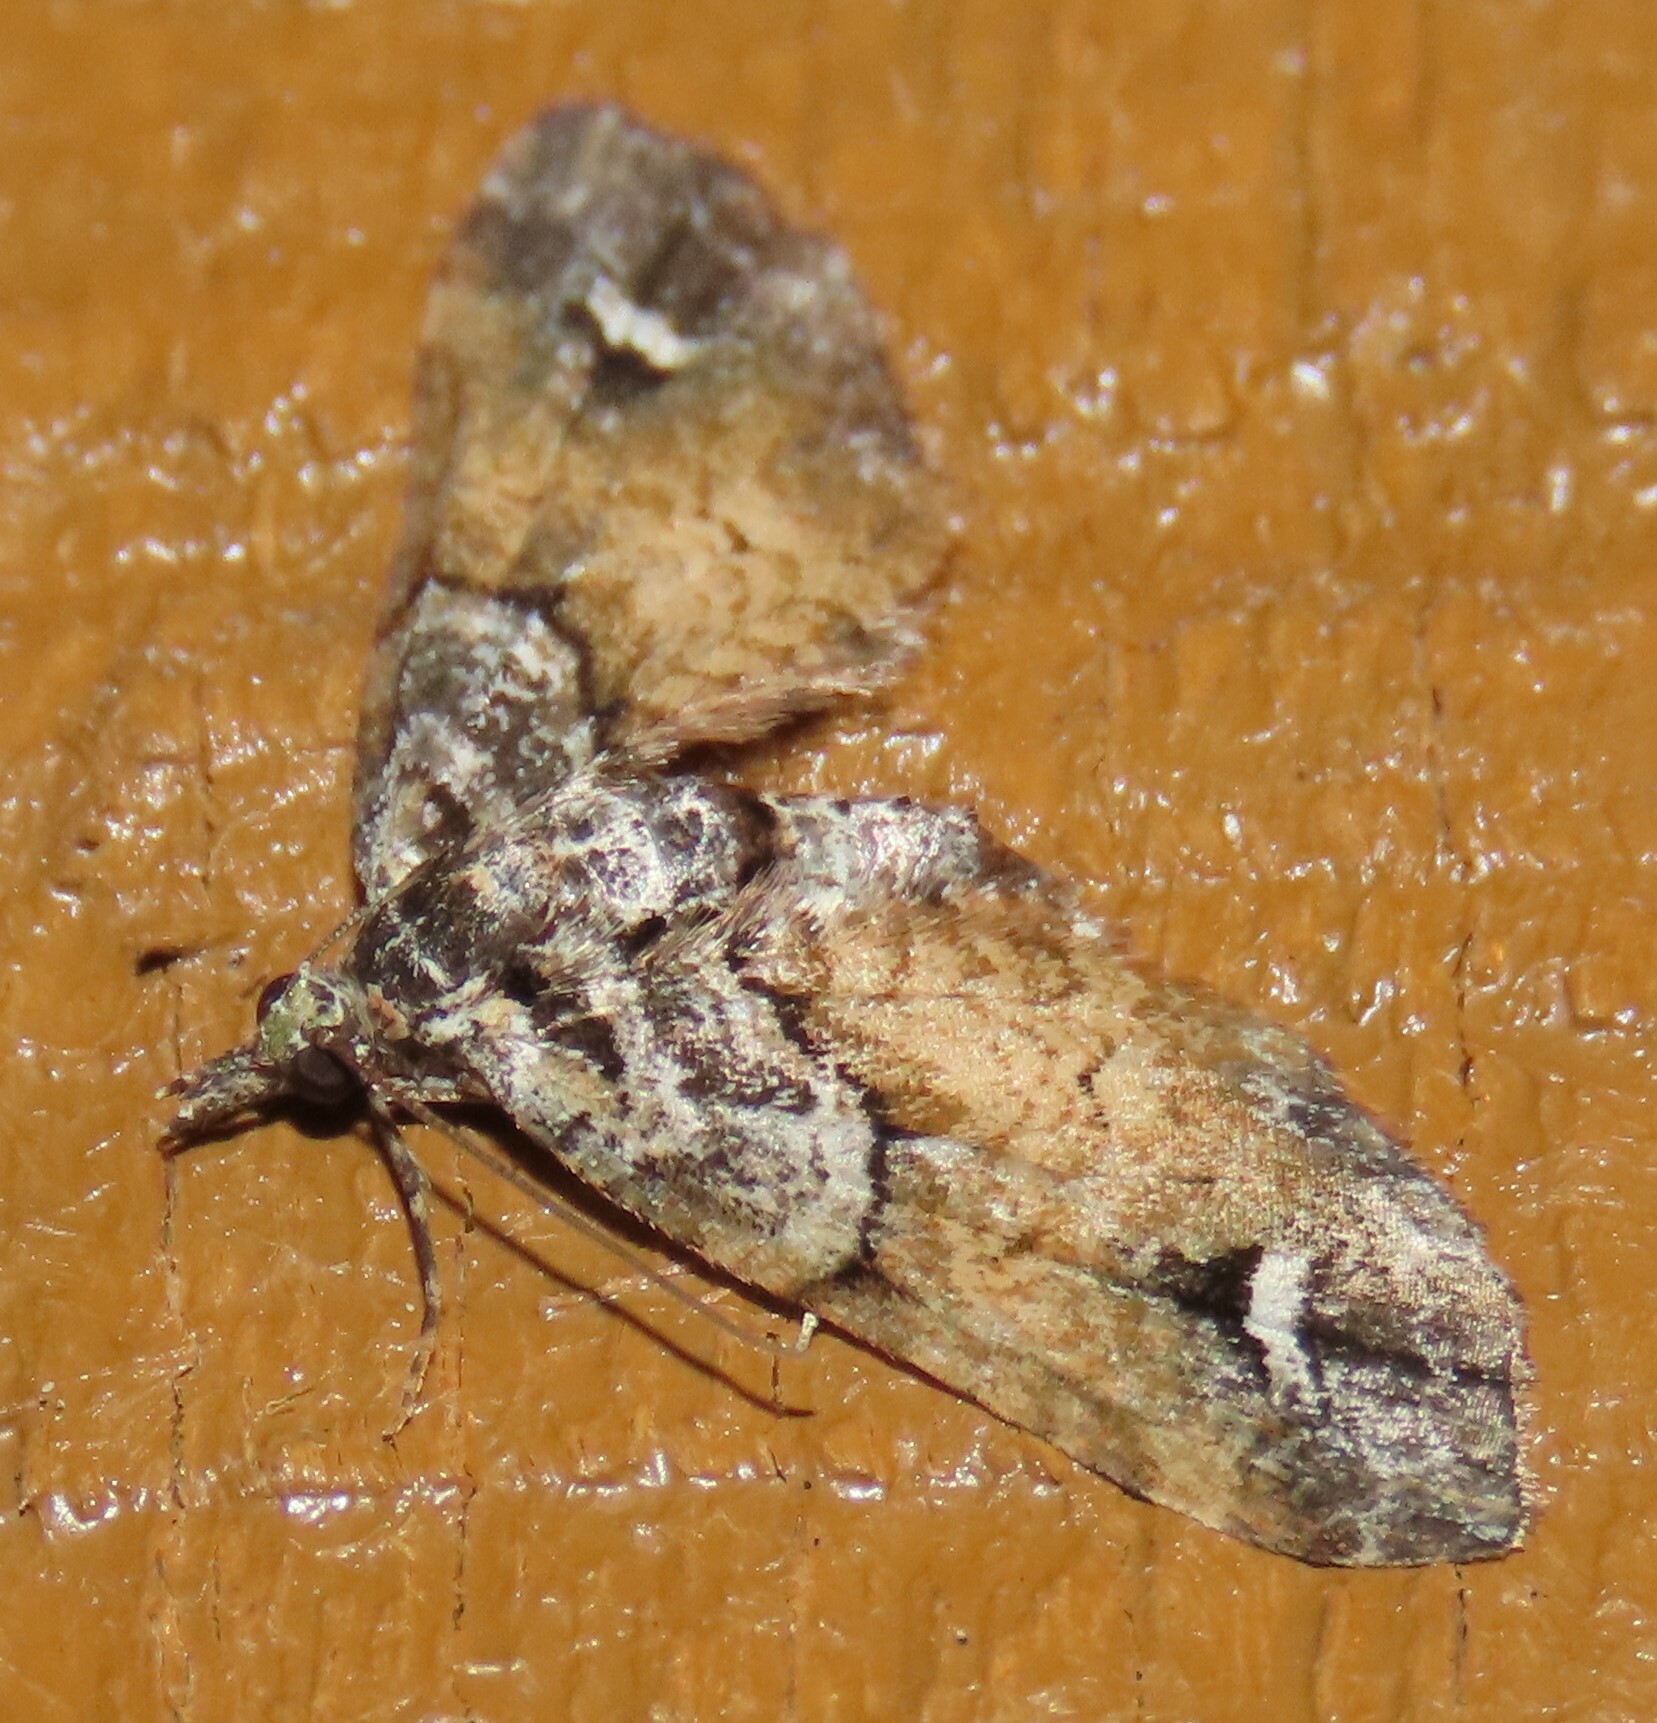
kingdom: Animalia
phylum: Arthropoda
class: Insecta
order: Lepidoptera
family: Geometridae
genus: Idaea
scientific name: Idaea mutanda
